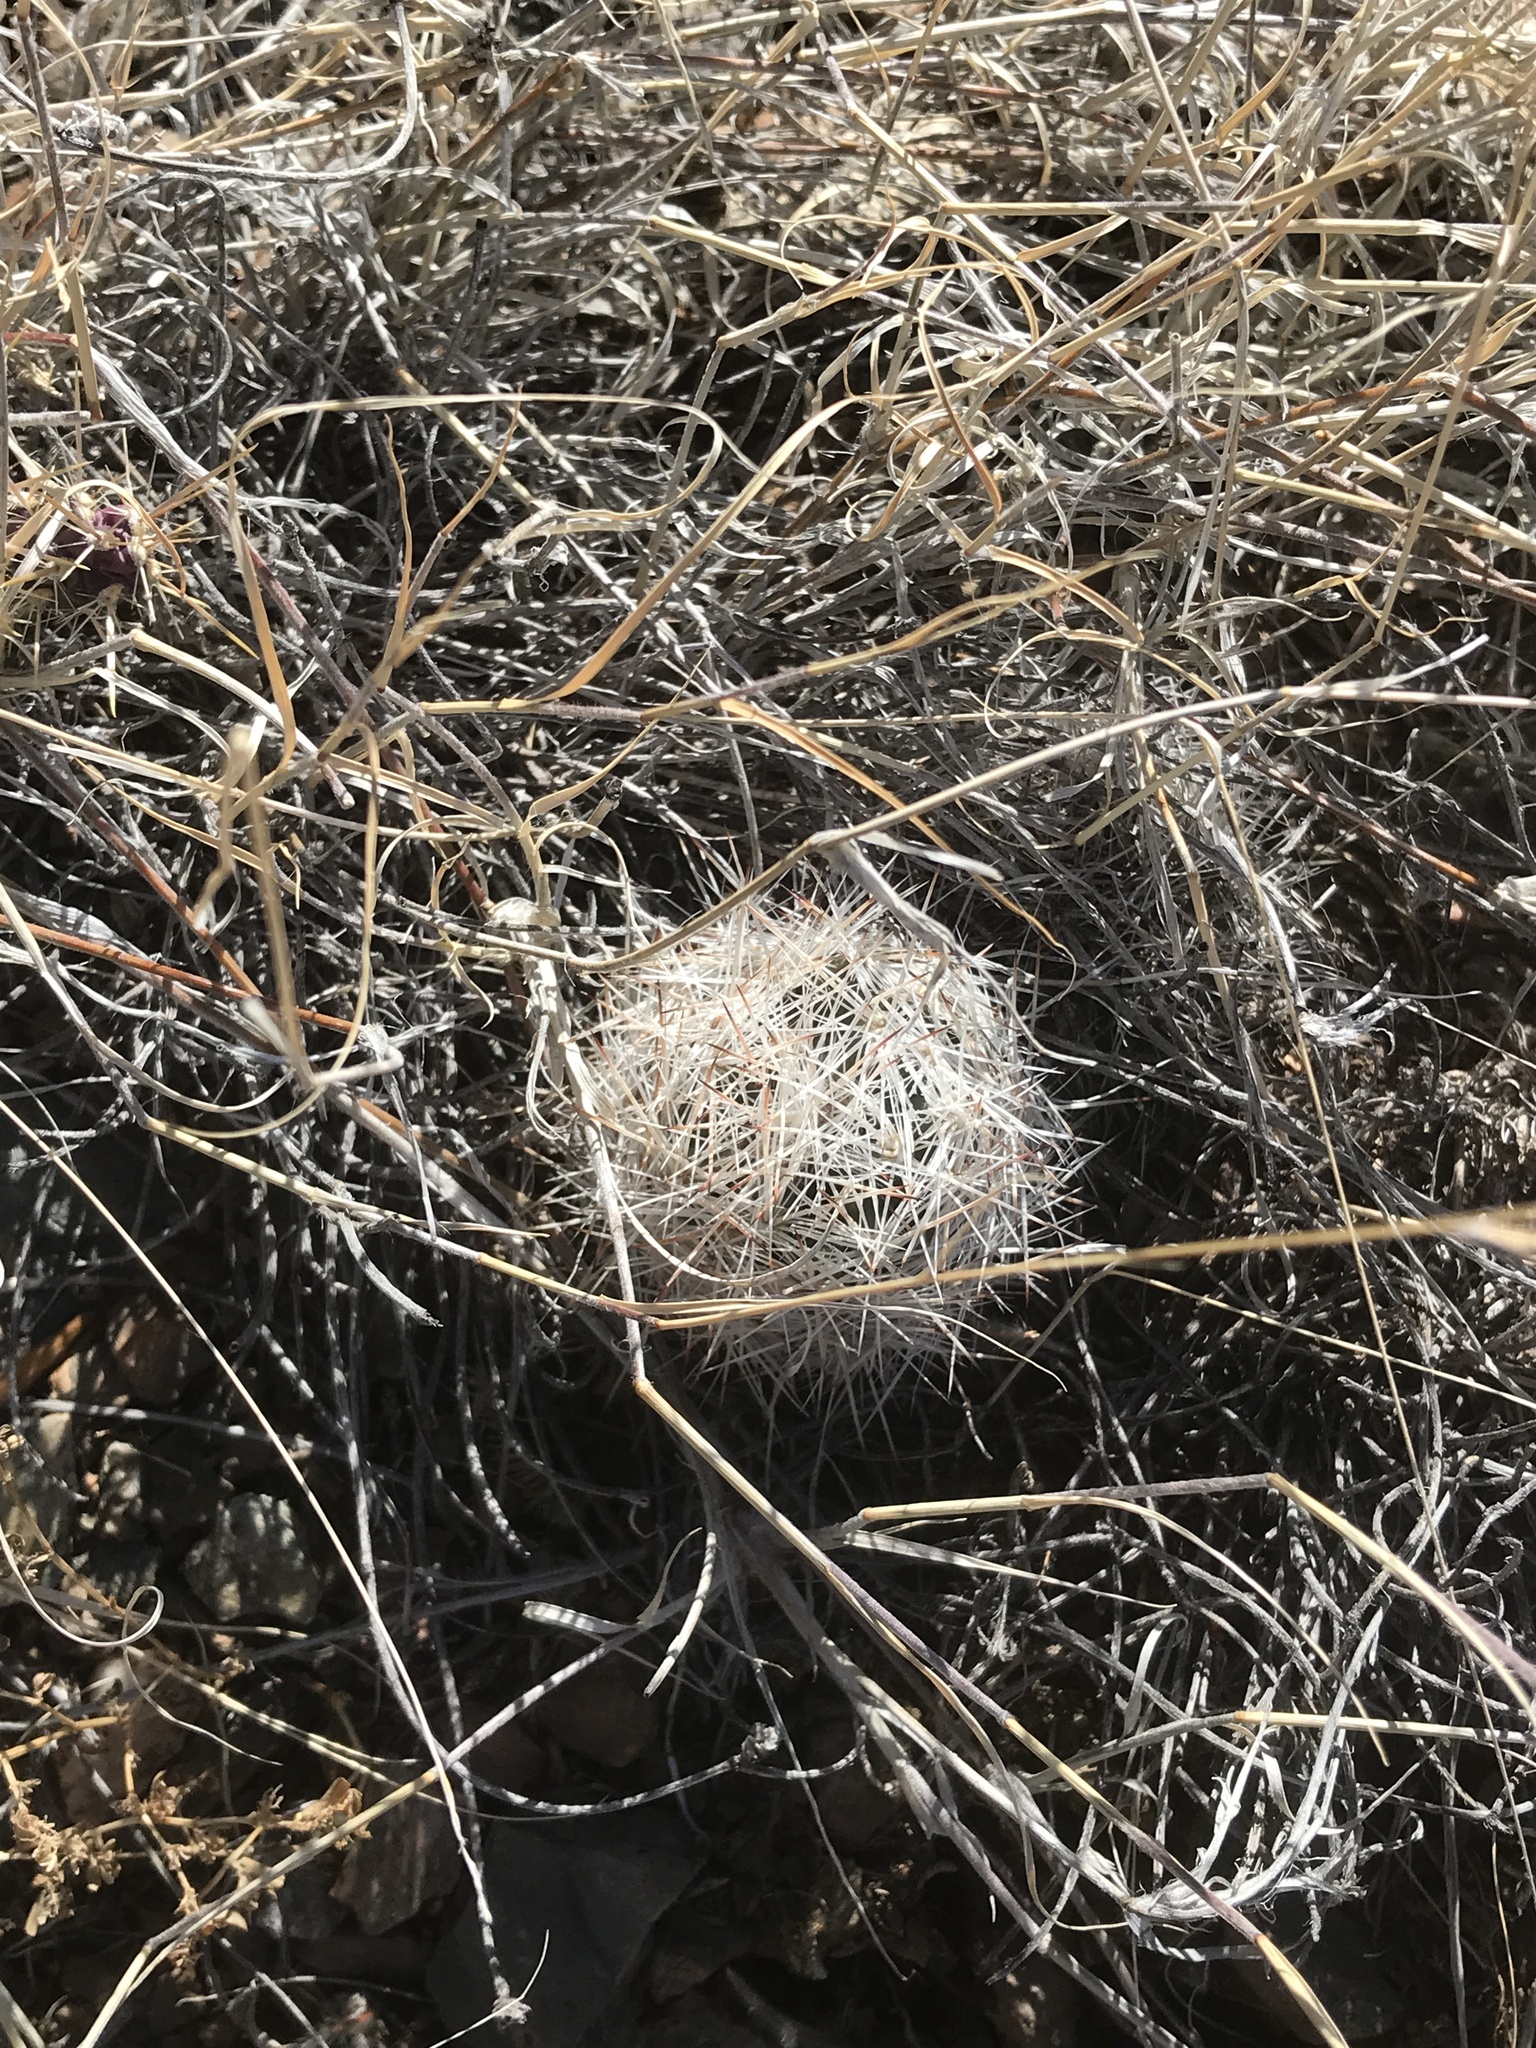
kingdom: Plantae
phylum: Tracheophyta
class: Magnoliopsida
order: Caryophyllales
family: Cactaceae
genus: Pelecyphora
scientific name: Pelecyphora vivipara
